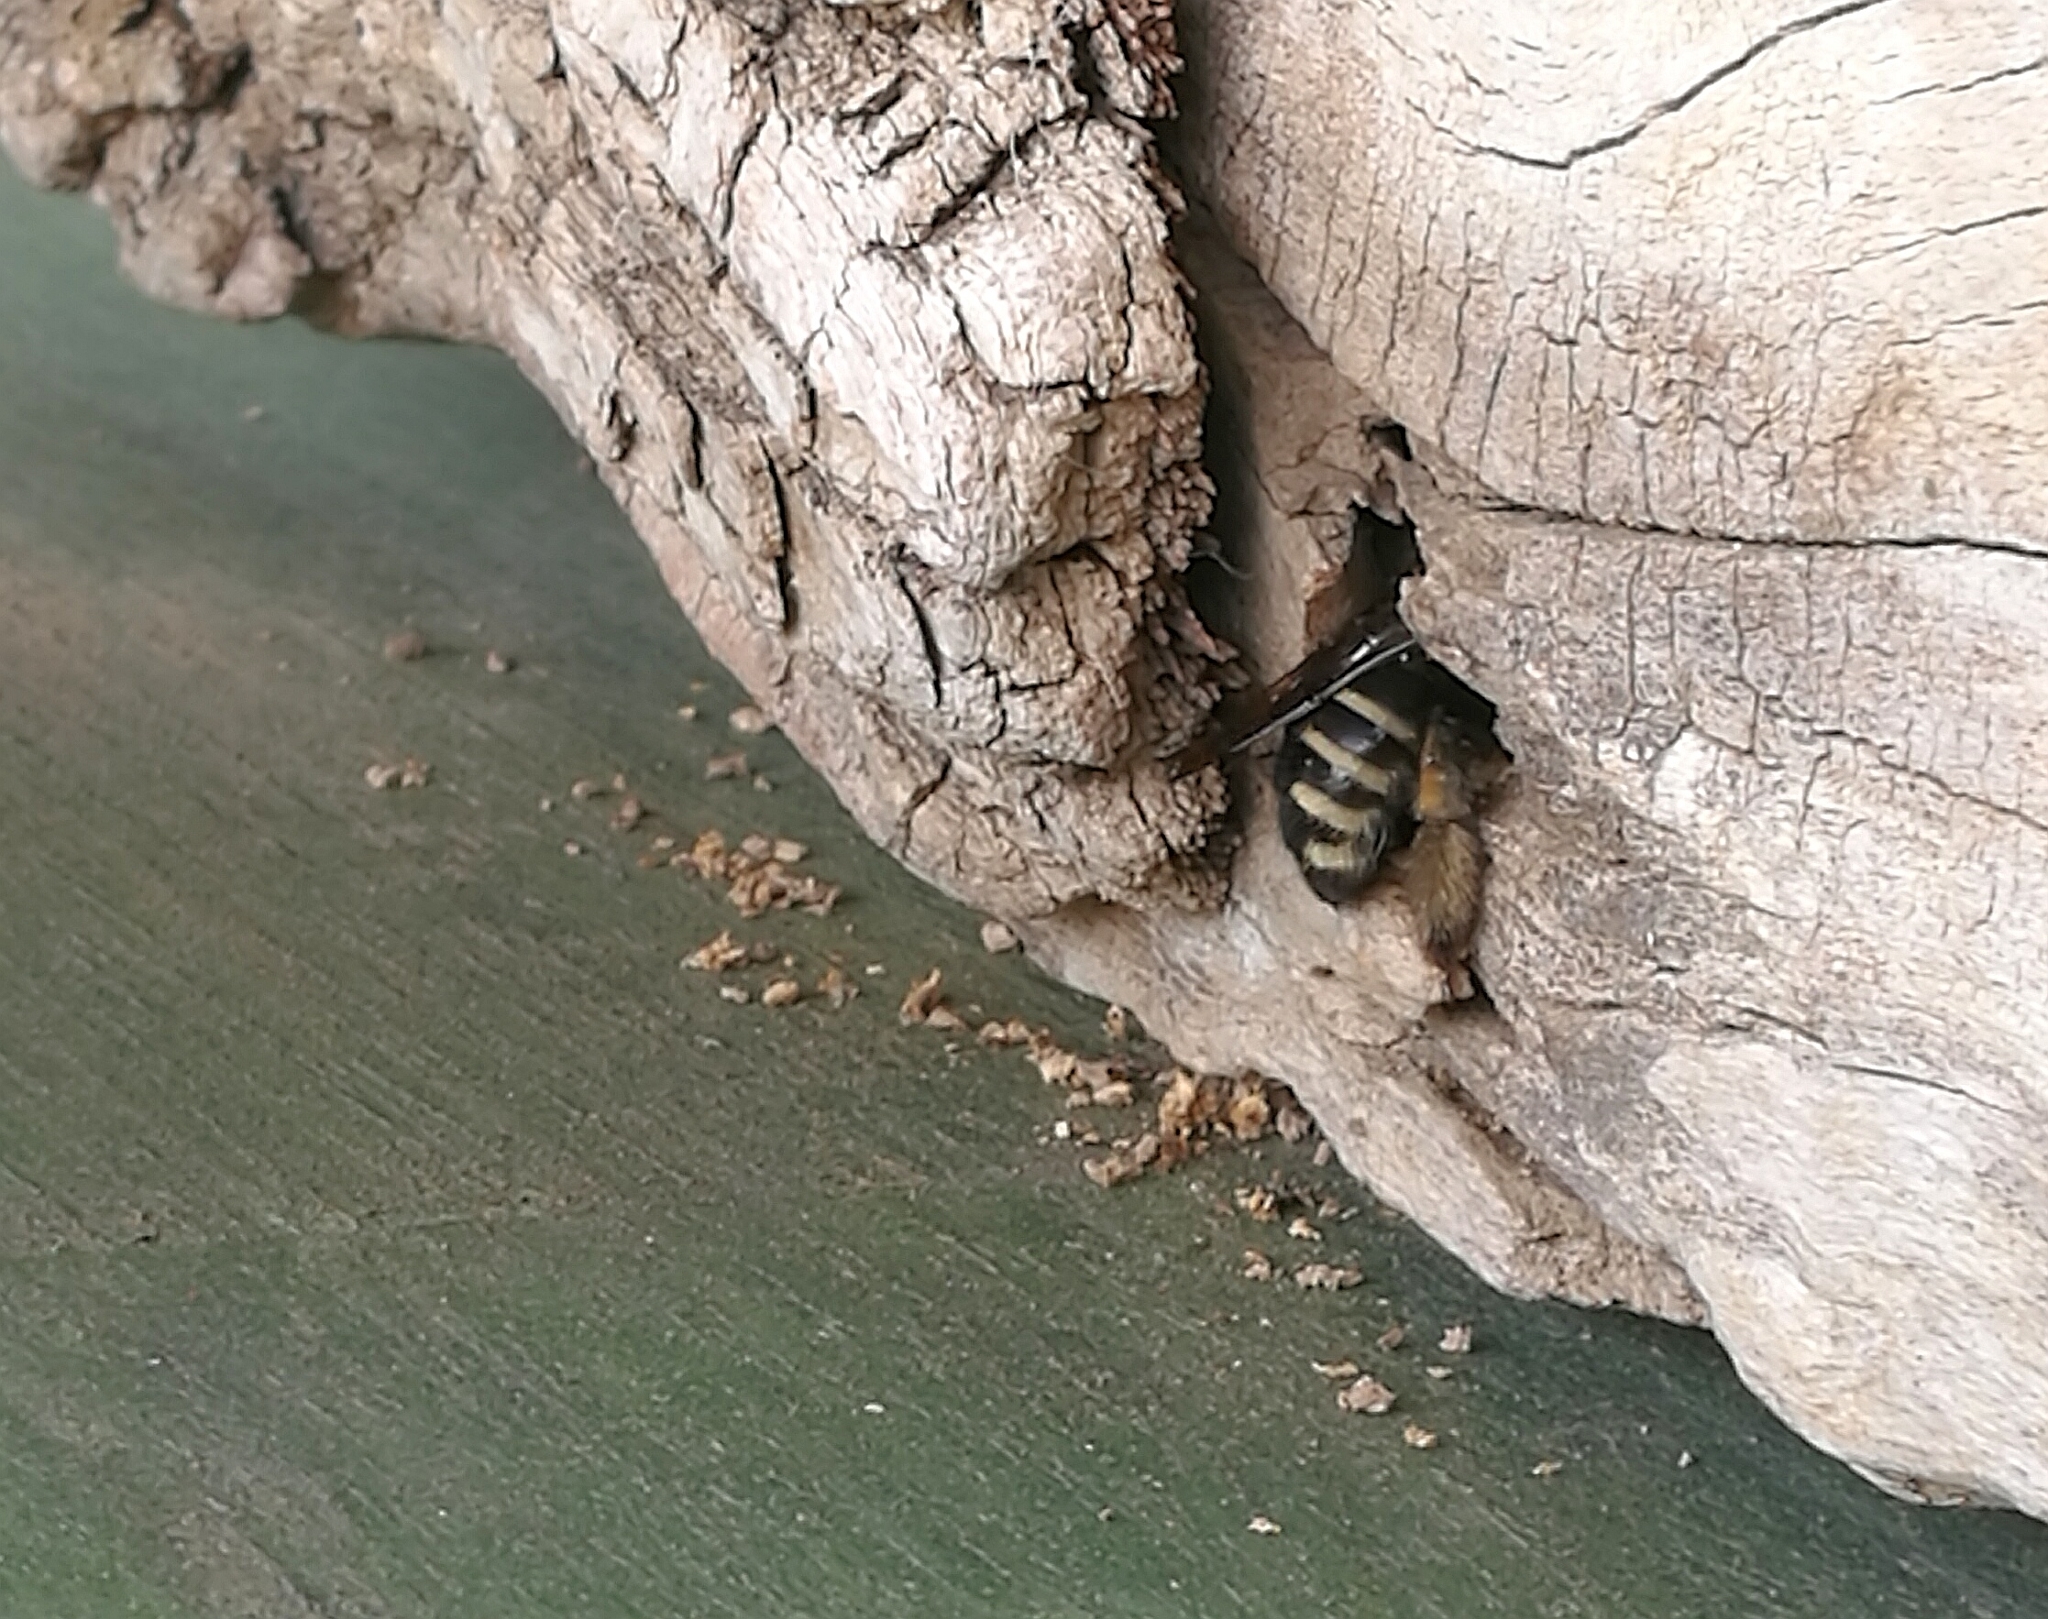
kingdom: Animalia
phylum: Arthropoda
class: Insecta
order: Hymenoptera
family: Apidae
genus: Xylocopa
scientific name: Xylocopa tabaniformis
